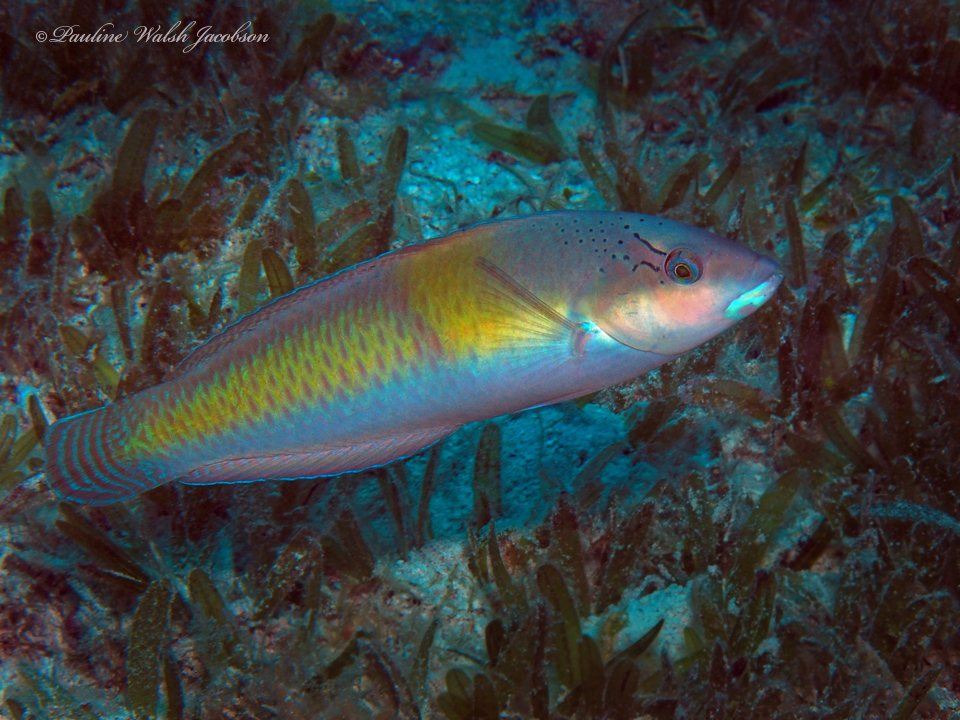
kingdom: Animalia
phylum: Chordata
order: Perciformes
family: Labridae
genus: Halichoeres
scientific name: Halichoeres garnoti
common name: Yellowhead wrasse
